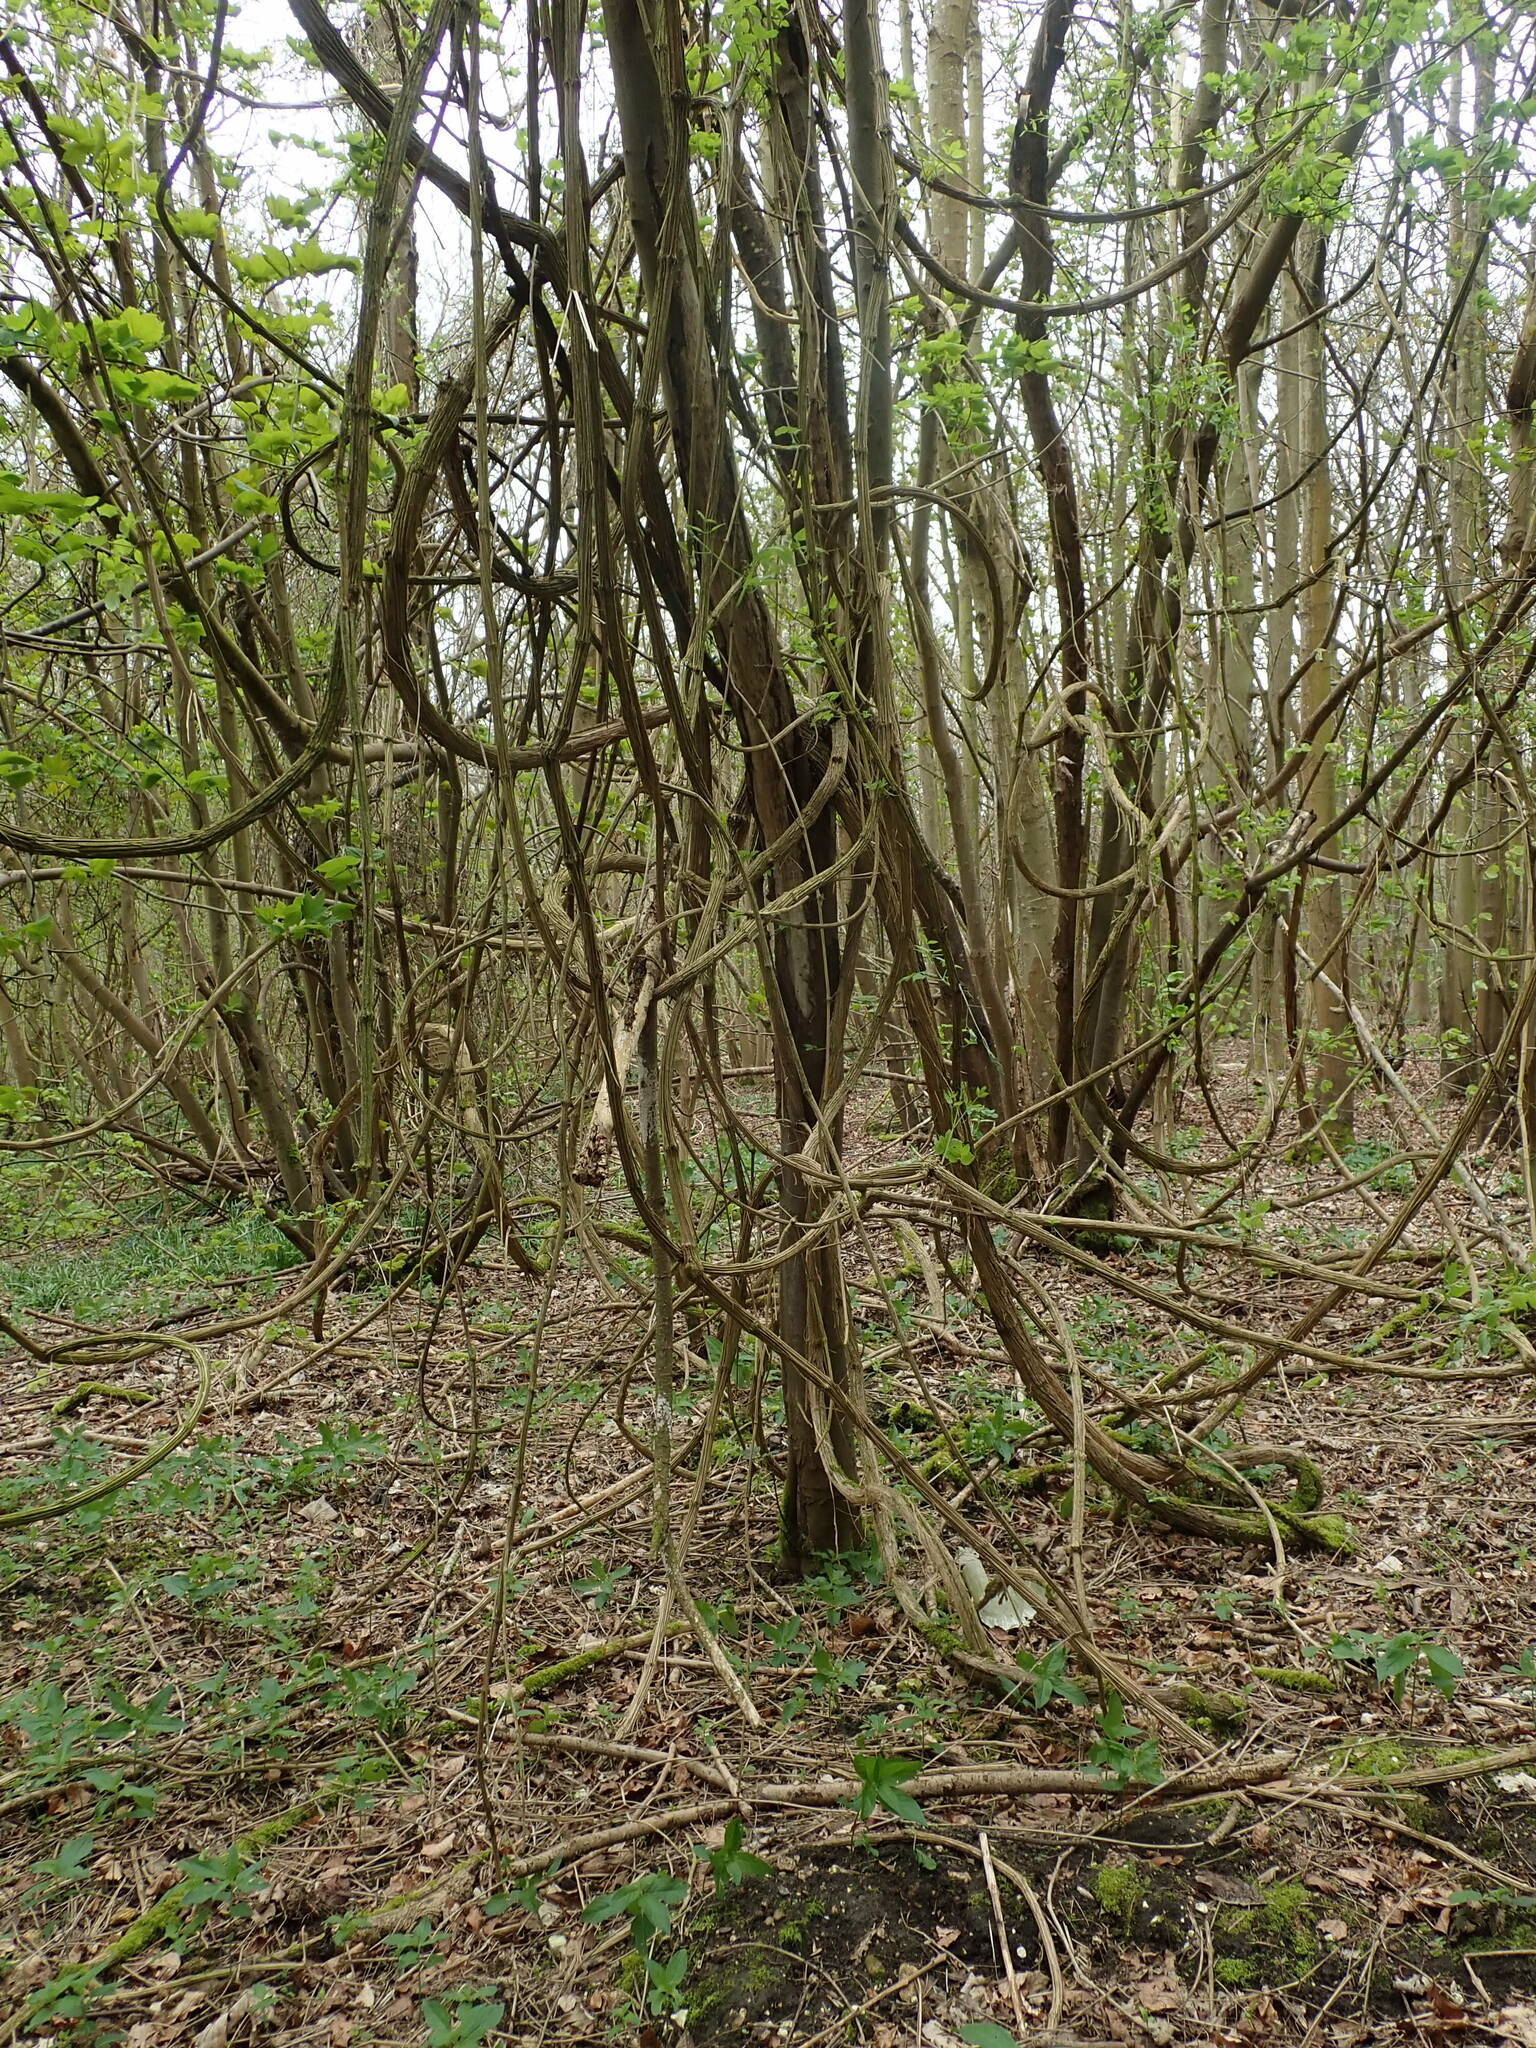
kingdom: Plantae
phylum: Tracheophyta
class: Magnoliopsida
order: Ranunculales
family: Ranunculaceae
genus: Clematis
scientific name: Clematis vitalba
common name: Evergreen clematis
